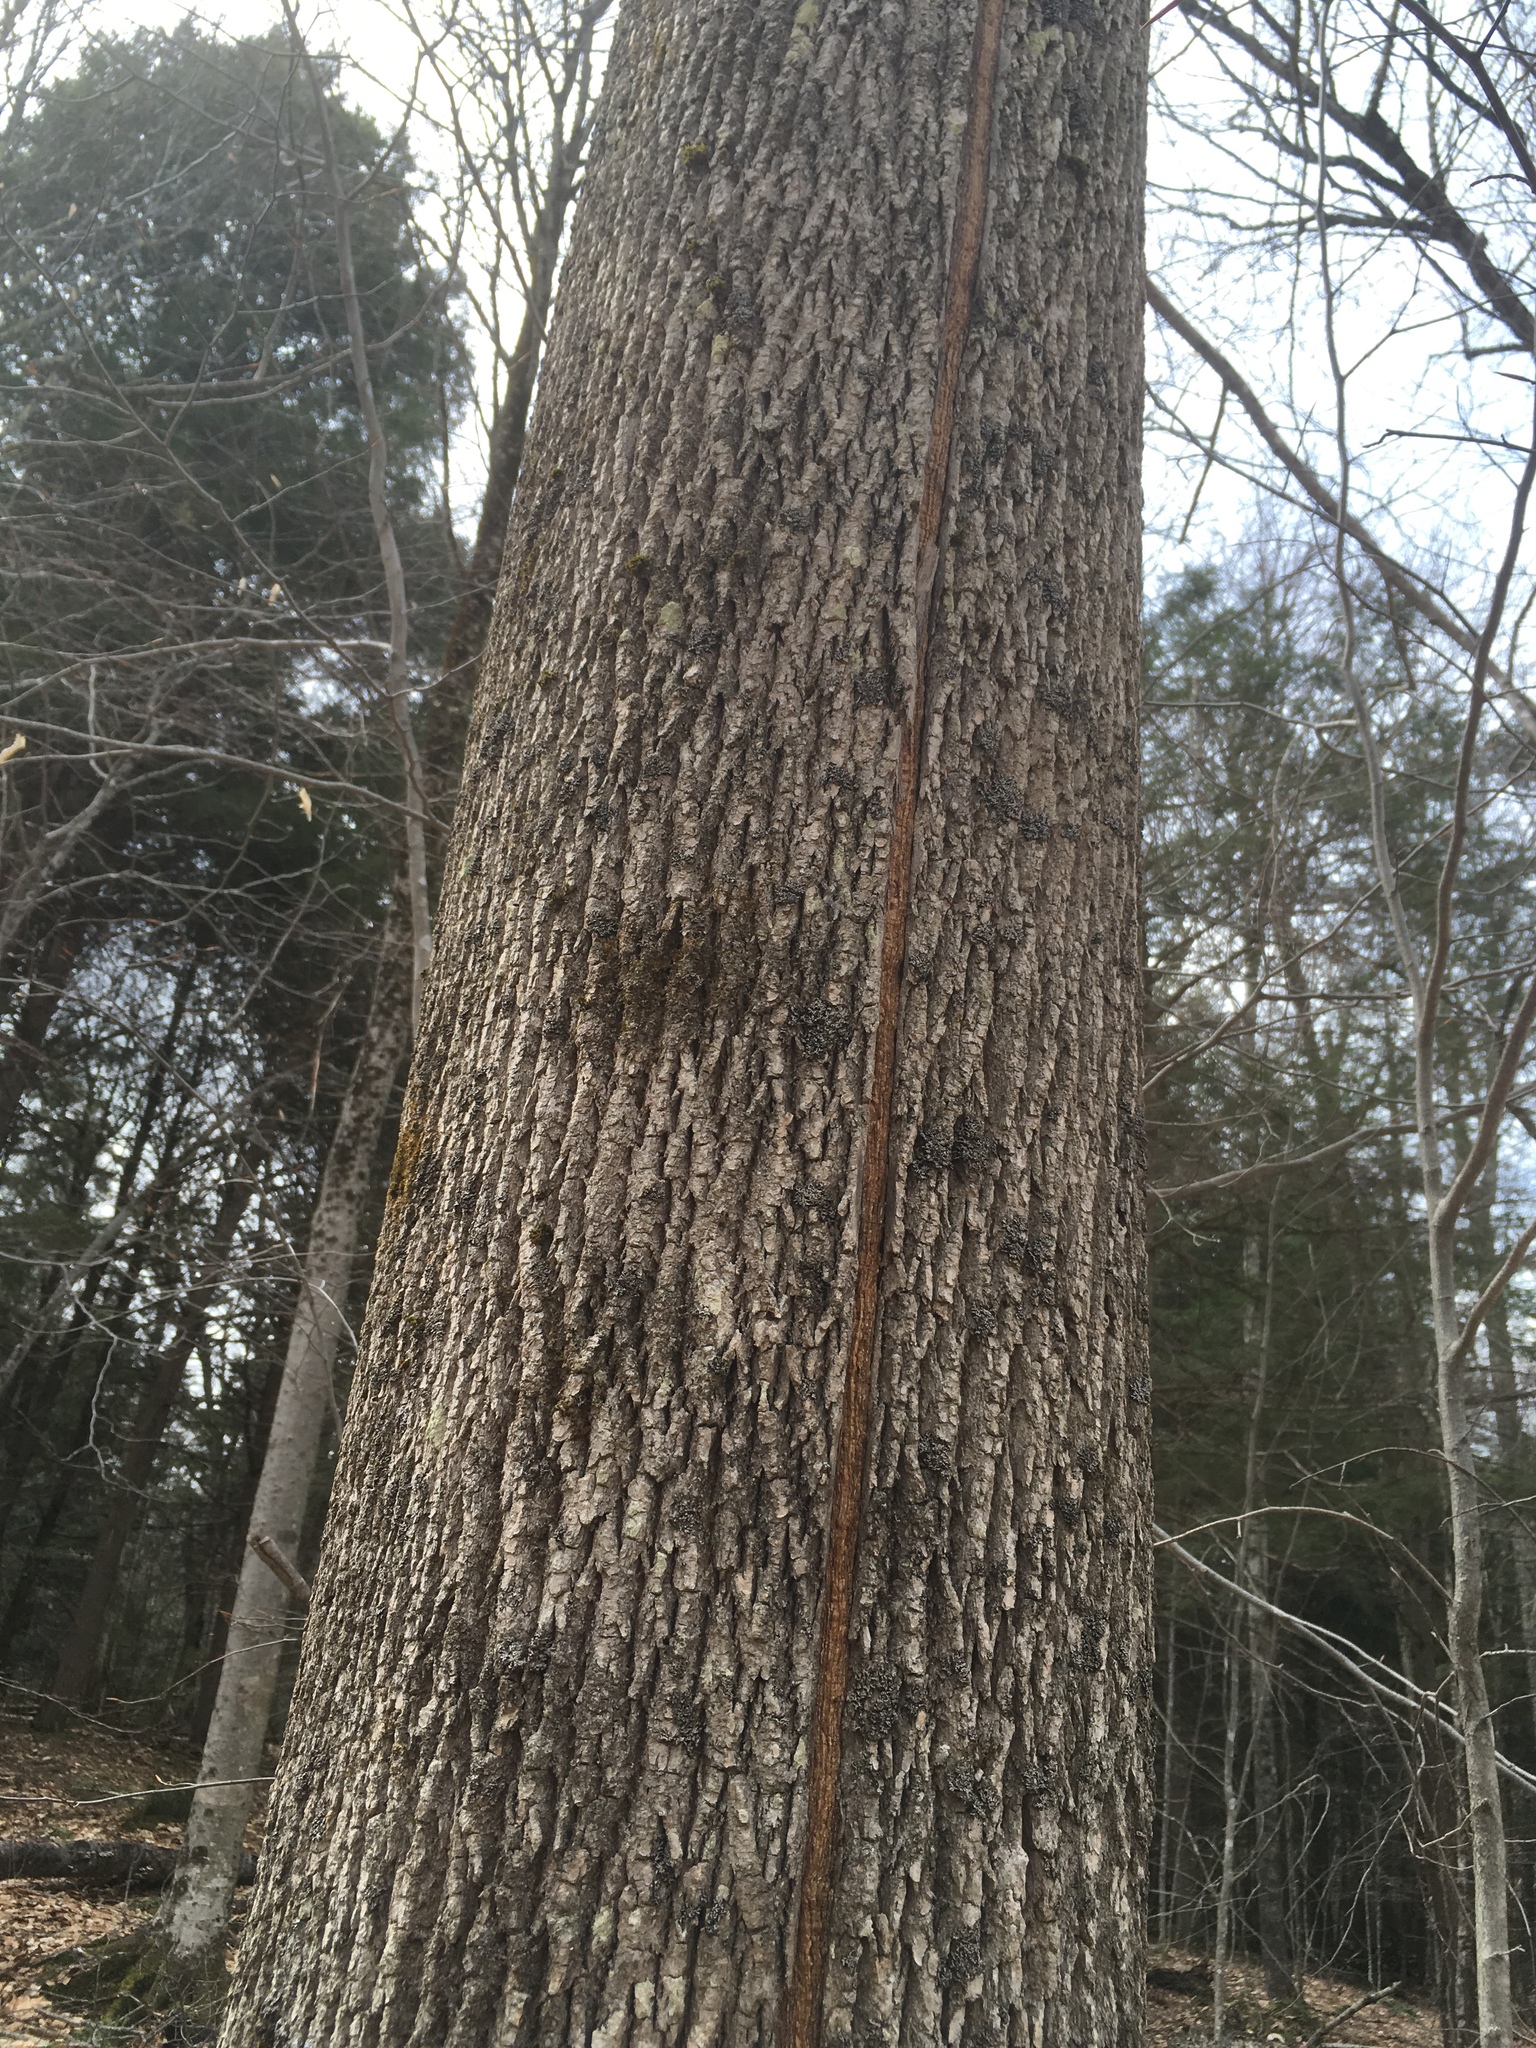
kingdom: Plantae
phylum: Tracheophyta
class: Magnoliopsida
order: Lamiales
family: Oleaceae
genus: Fraxinus
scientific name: Fraxinus americana
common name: White ash
